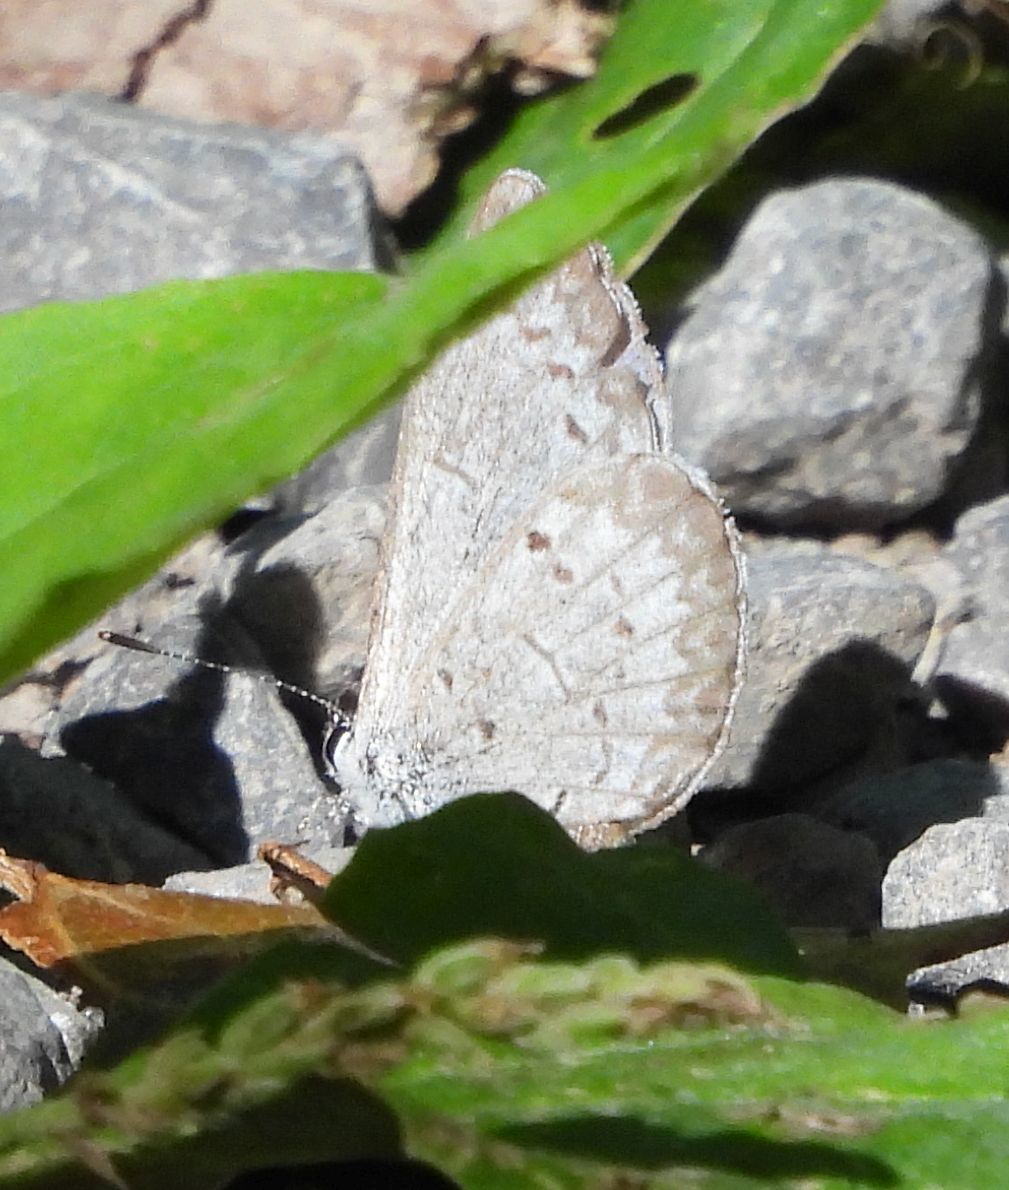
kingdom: Animalia
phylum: Arthropoda
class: Insecta
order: Lepidoptera
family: Lycaenidae
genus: Celastrina
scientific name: Celastrina lucia
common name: Lucia azure
